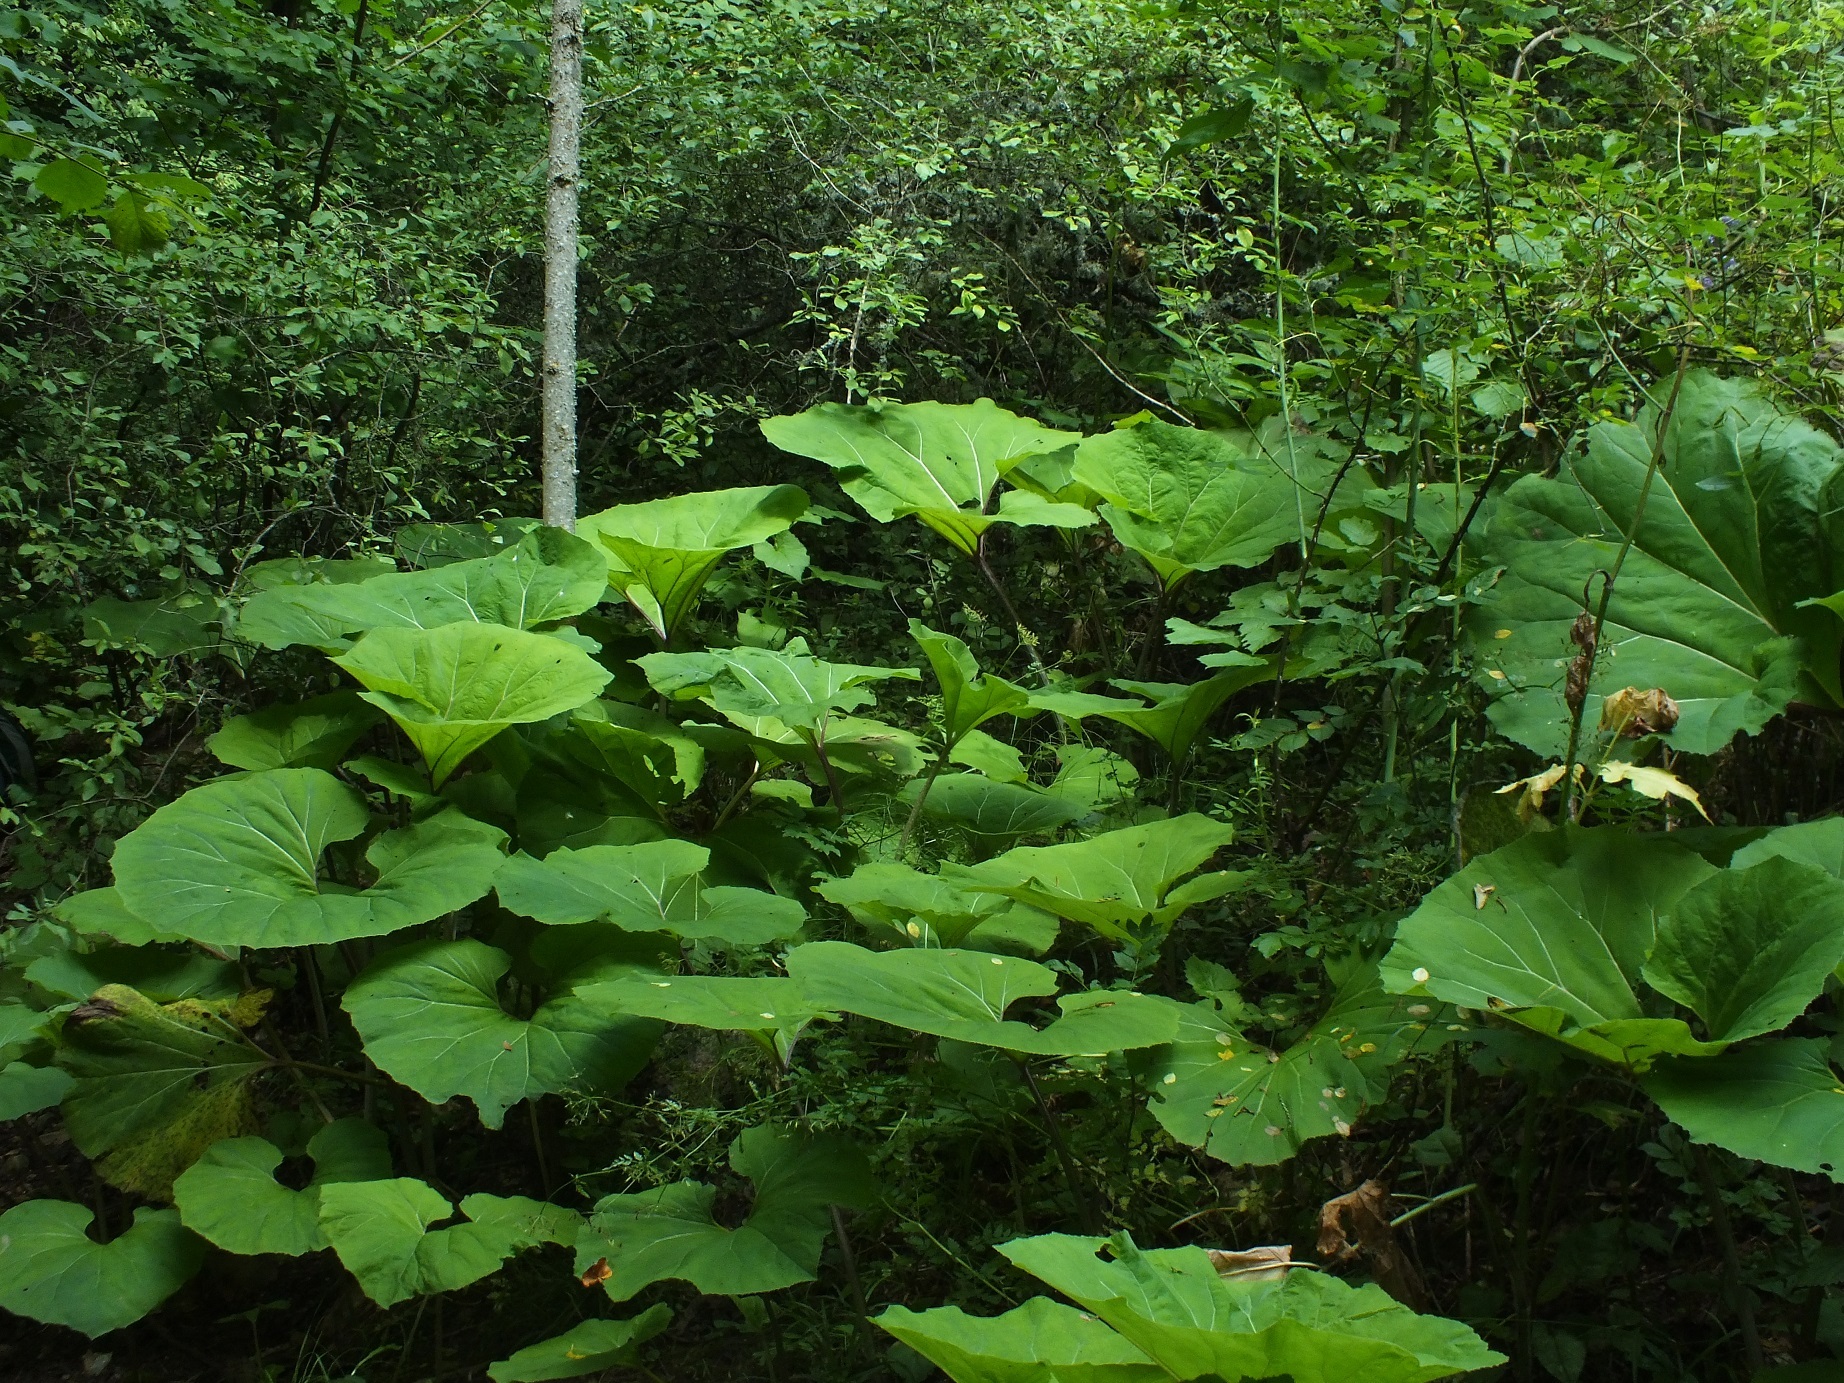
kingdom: Plantae
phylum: Tracheophyta
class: Magnoliopsida
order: Asterales
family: Asteraceae
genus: Petasites
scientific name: Petasites hybridus
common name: Butterbur
